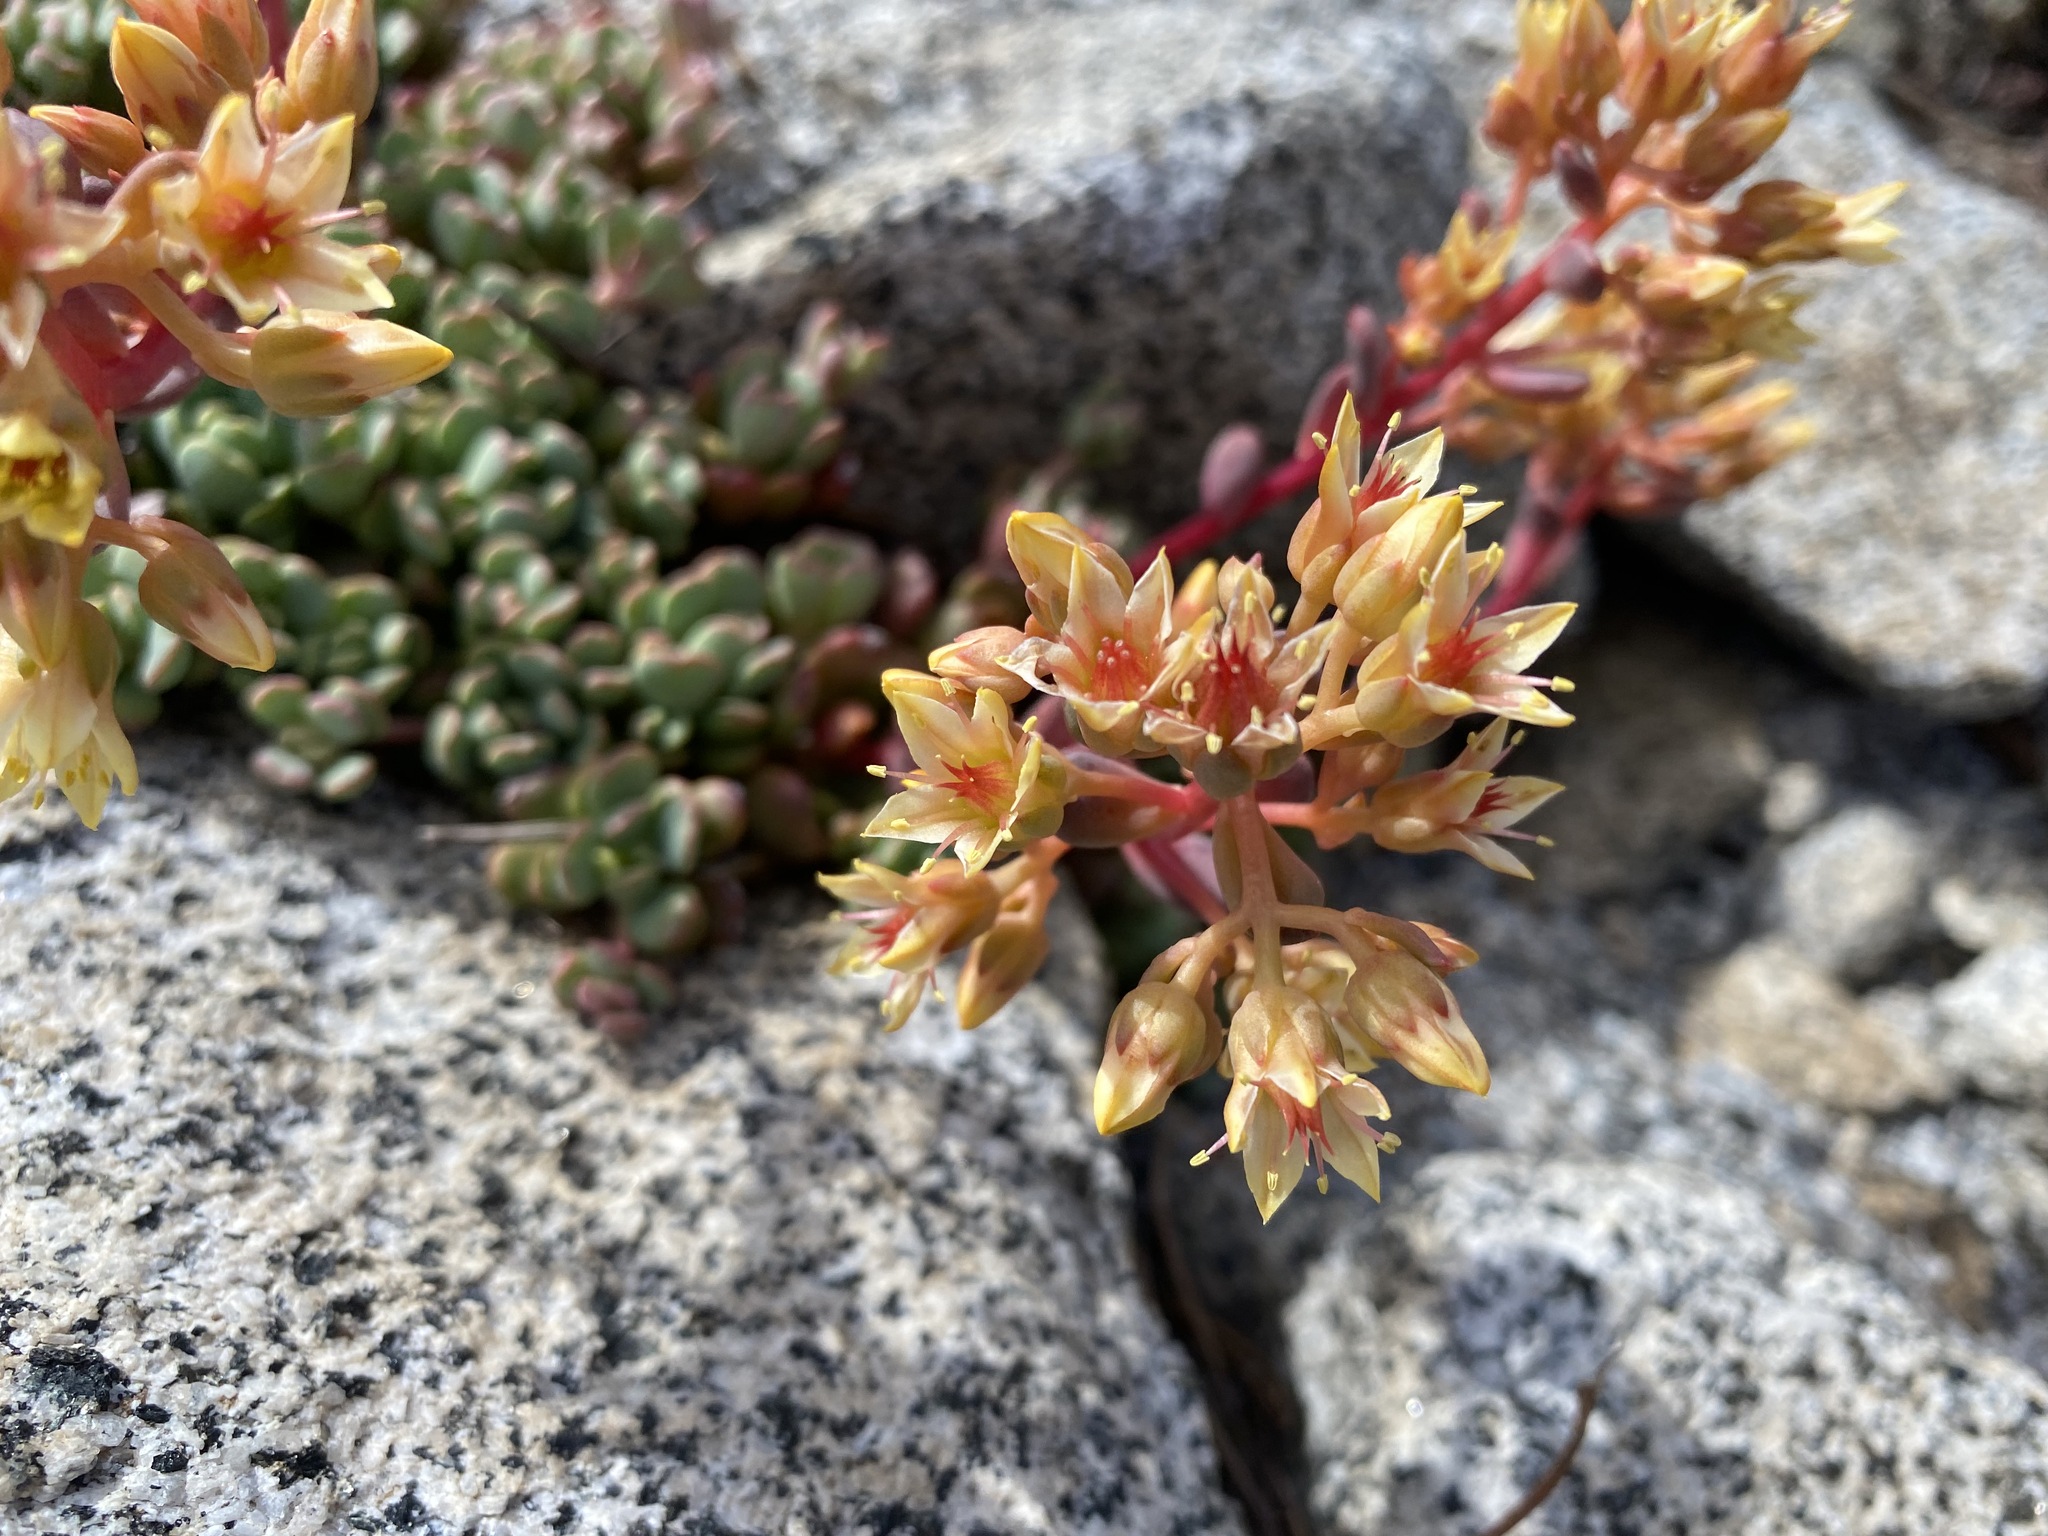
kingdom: Plantae
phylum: Tracheophyta
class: Magnoliopsida
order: Saxifragales
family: Crassulaceae
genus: Sedum
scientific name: Sedum obtusatum
